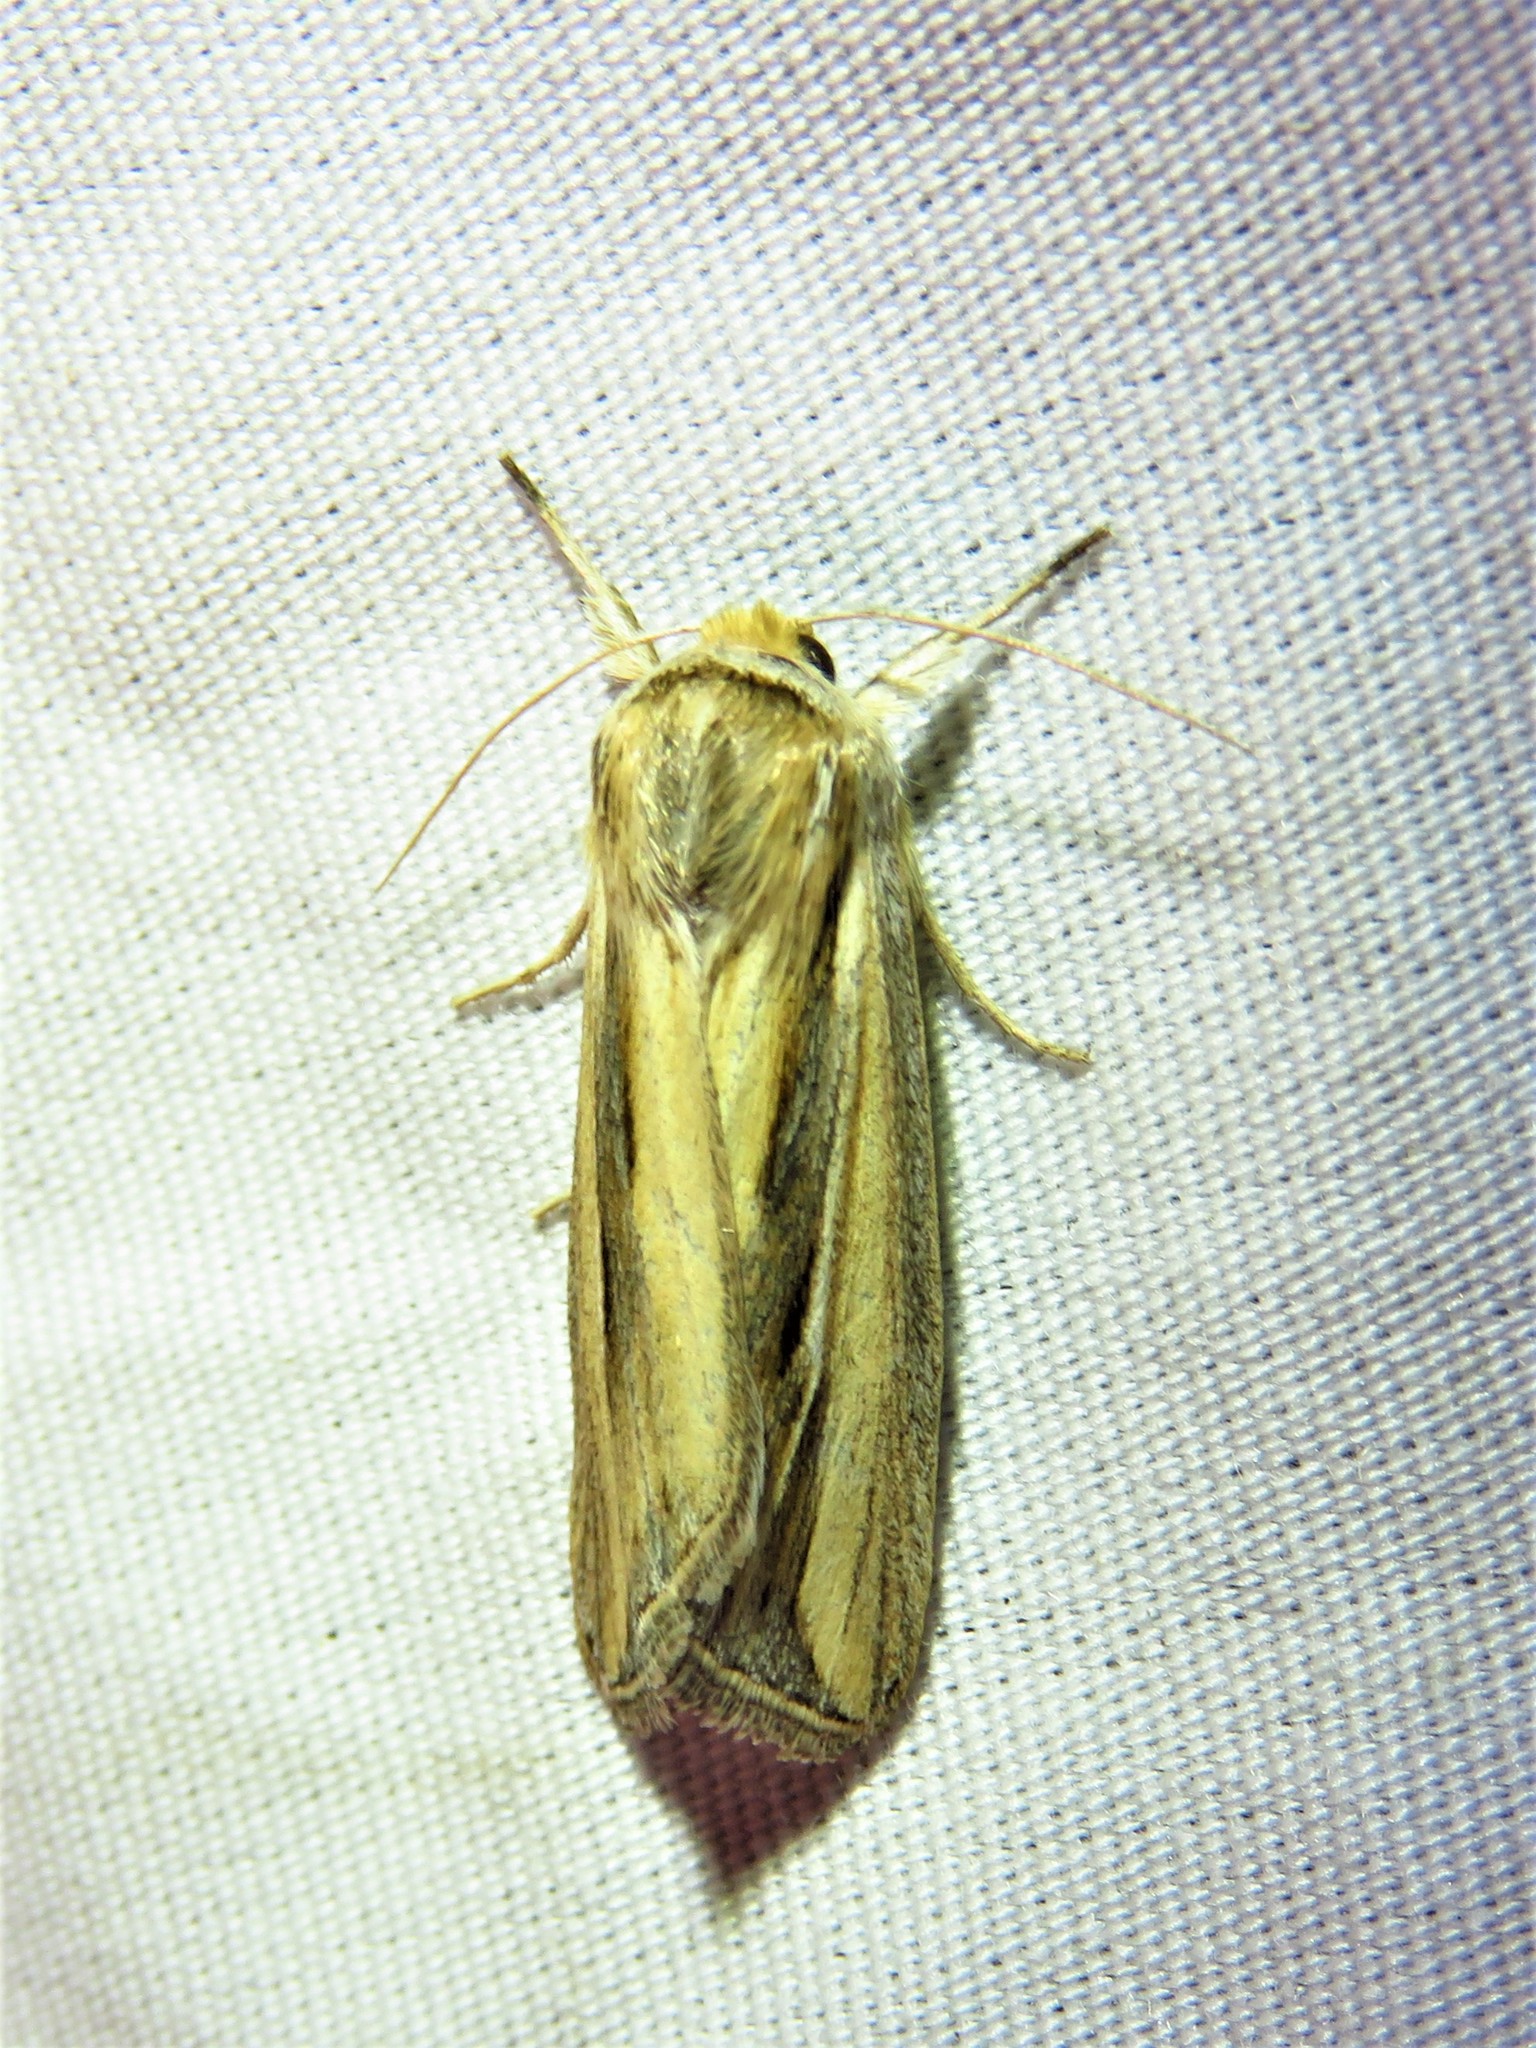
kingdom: Animalia
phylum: Arthropoda
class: Insecta
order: Lepidoptera
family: Noctuidae
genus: Dargida
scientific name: Dargida diffusa
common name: Wheat head armyworm
